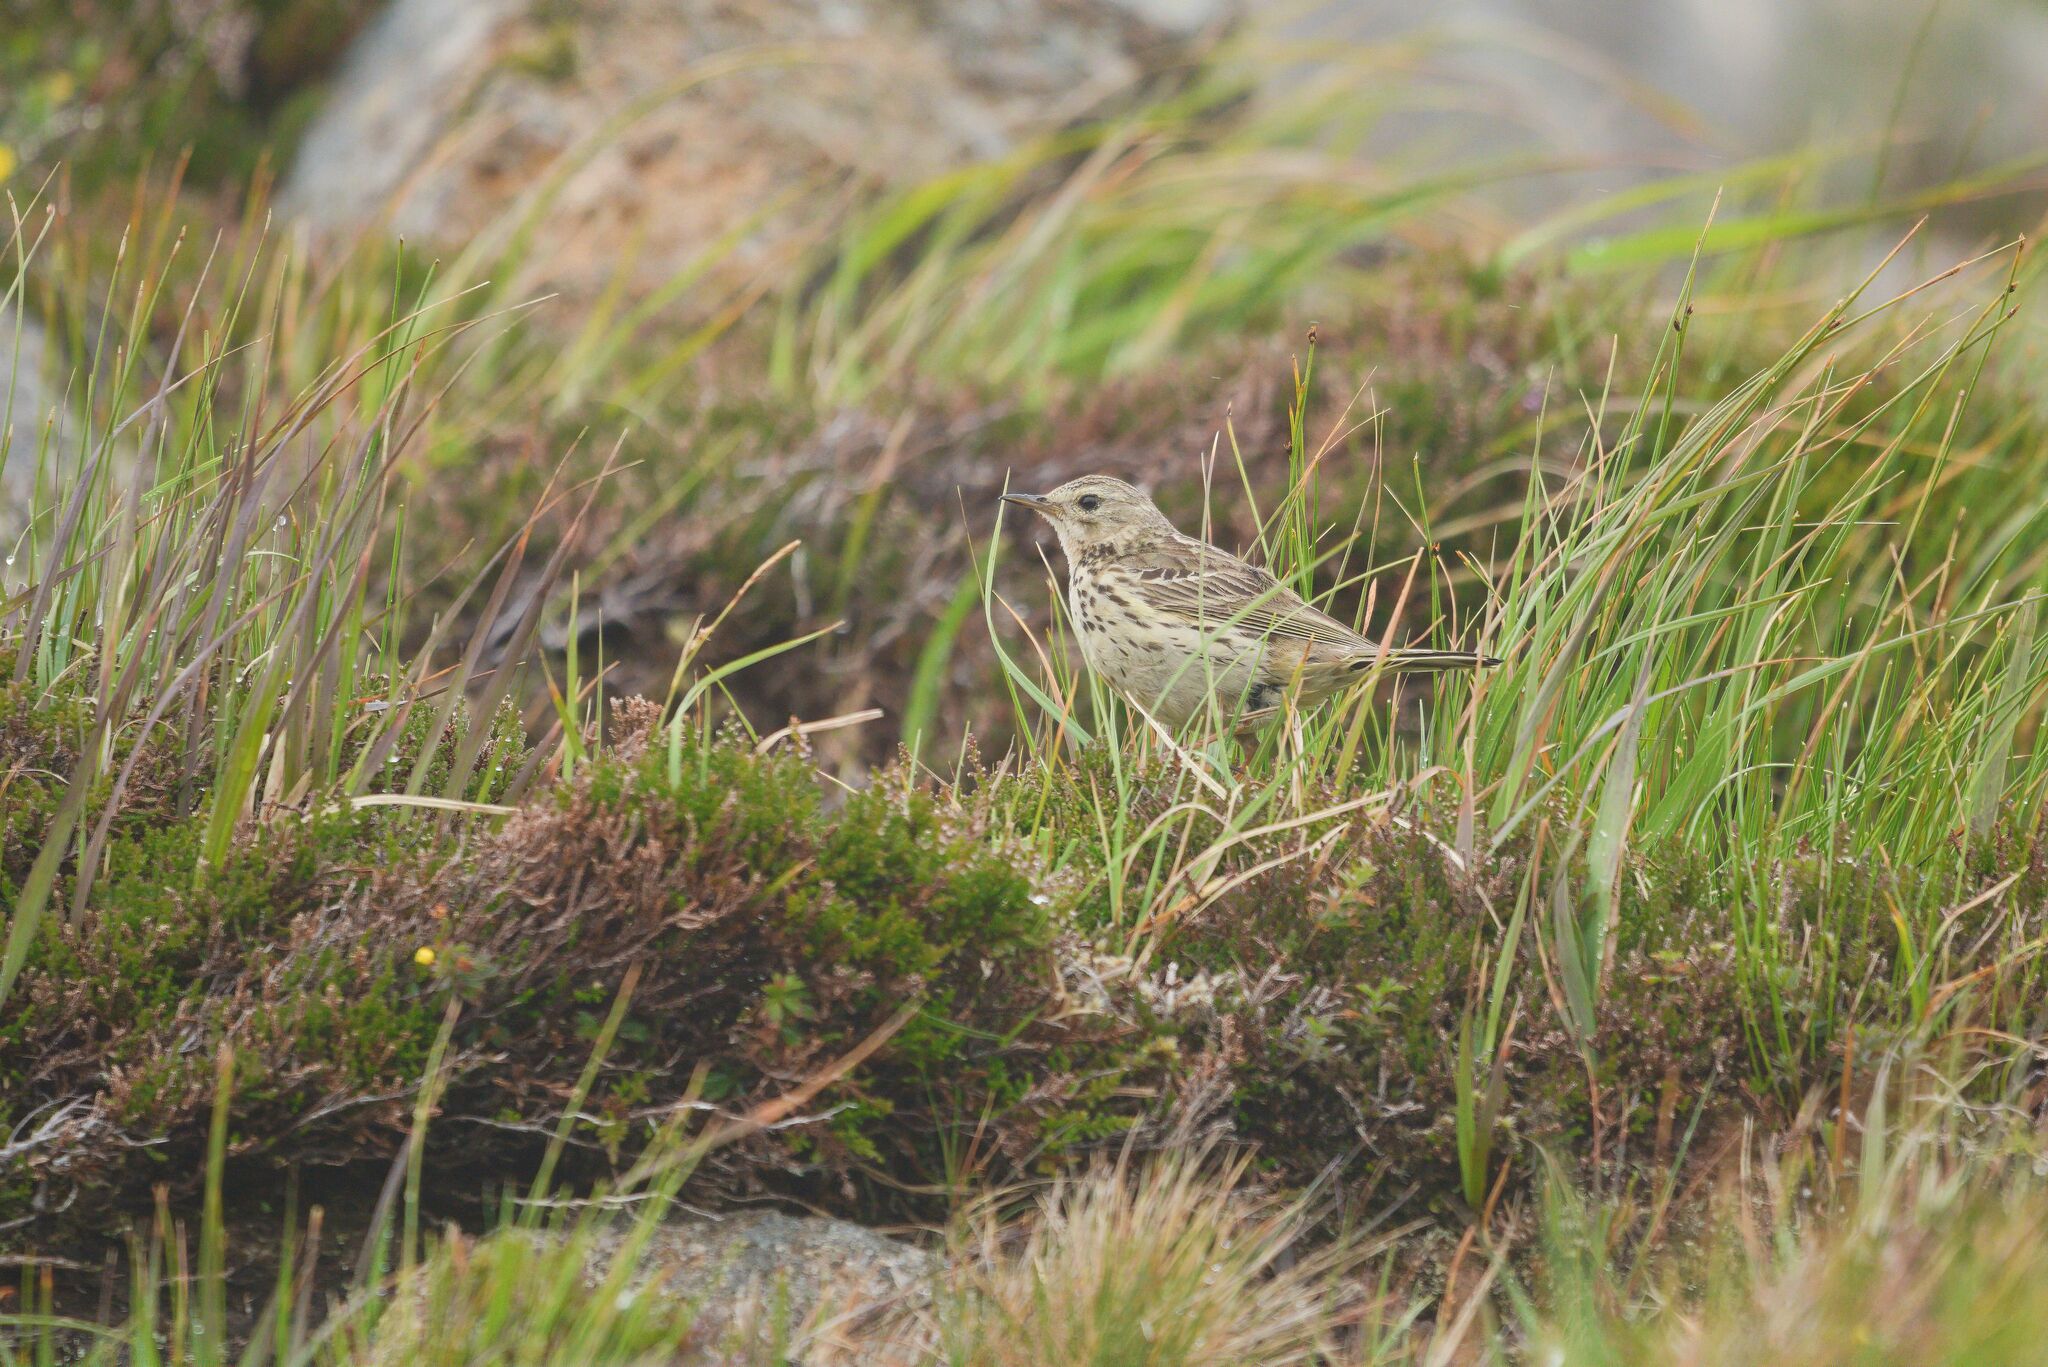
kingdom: Animalia
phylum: Chordata
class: Aves
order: Passeriformes
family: Motacillidae
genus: Anthus
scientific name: Anthus pratensis
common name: Meadow pipit
